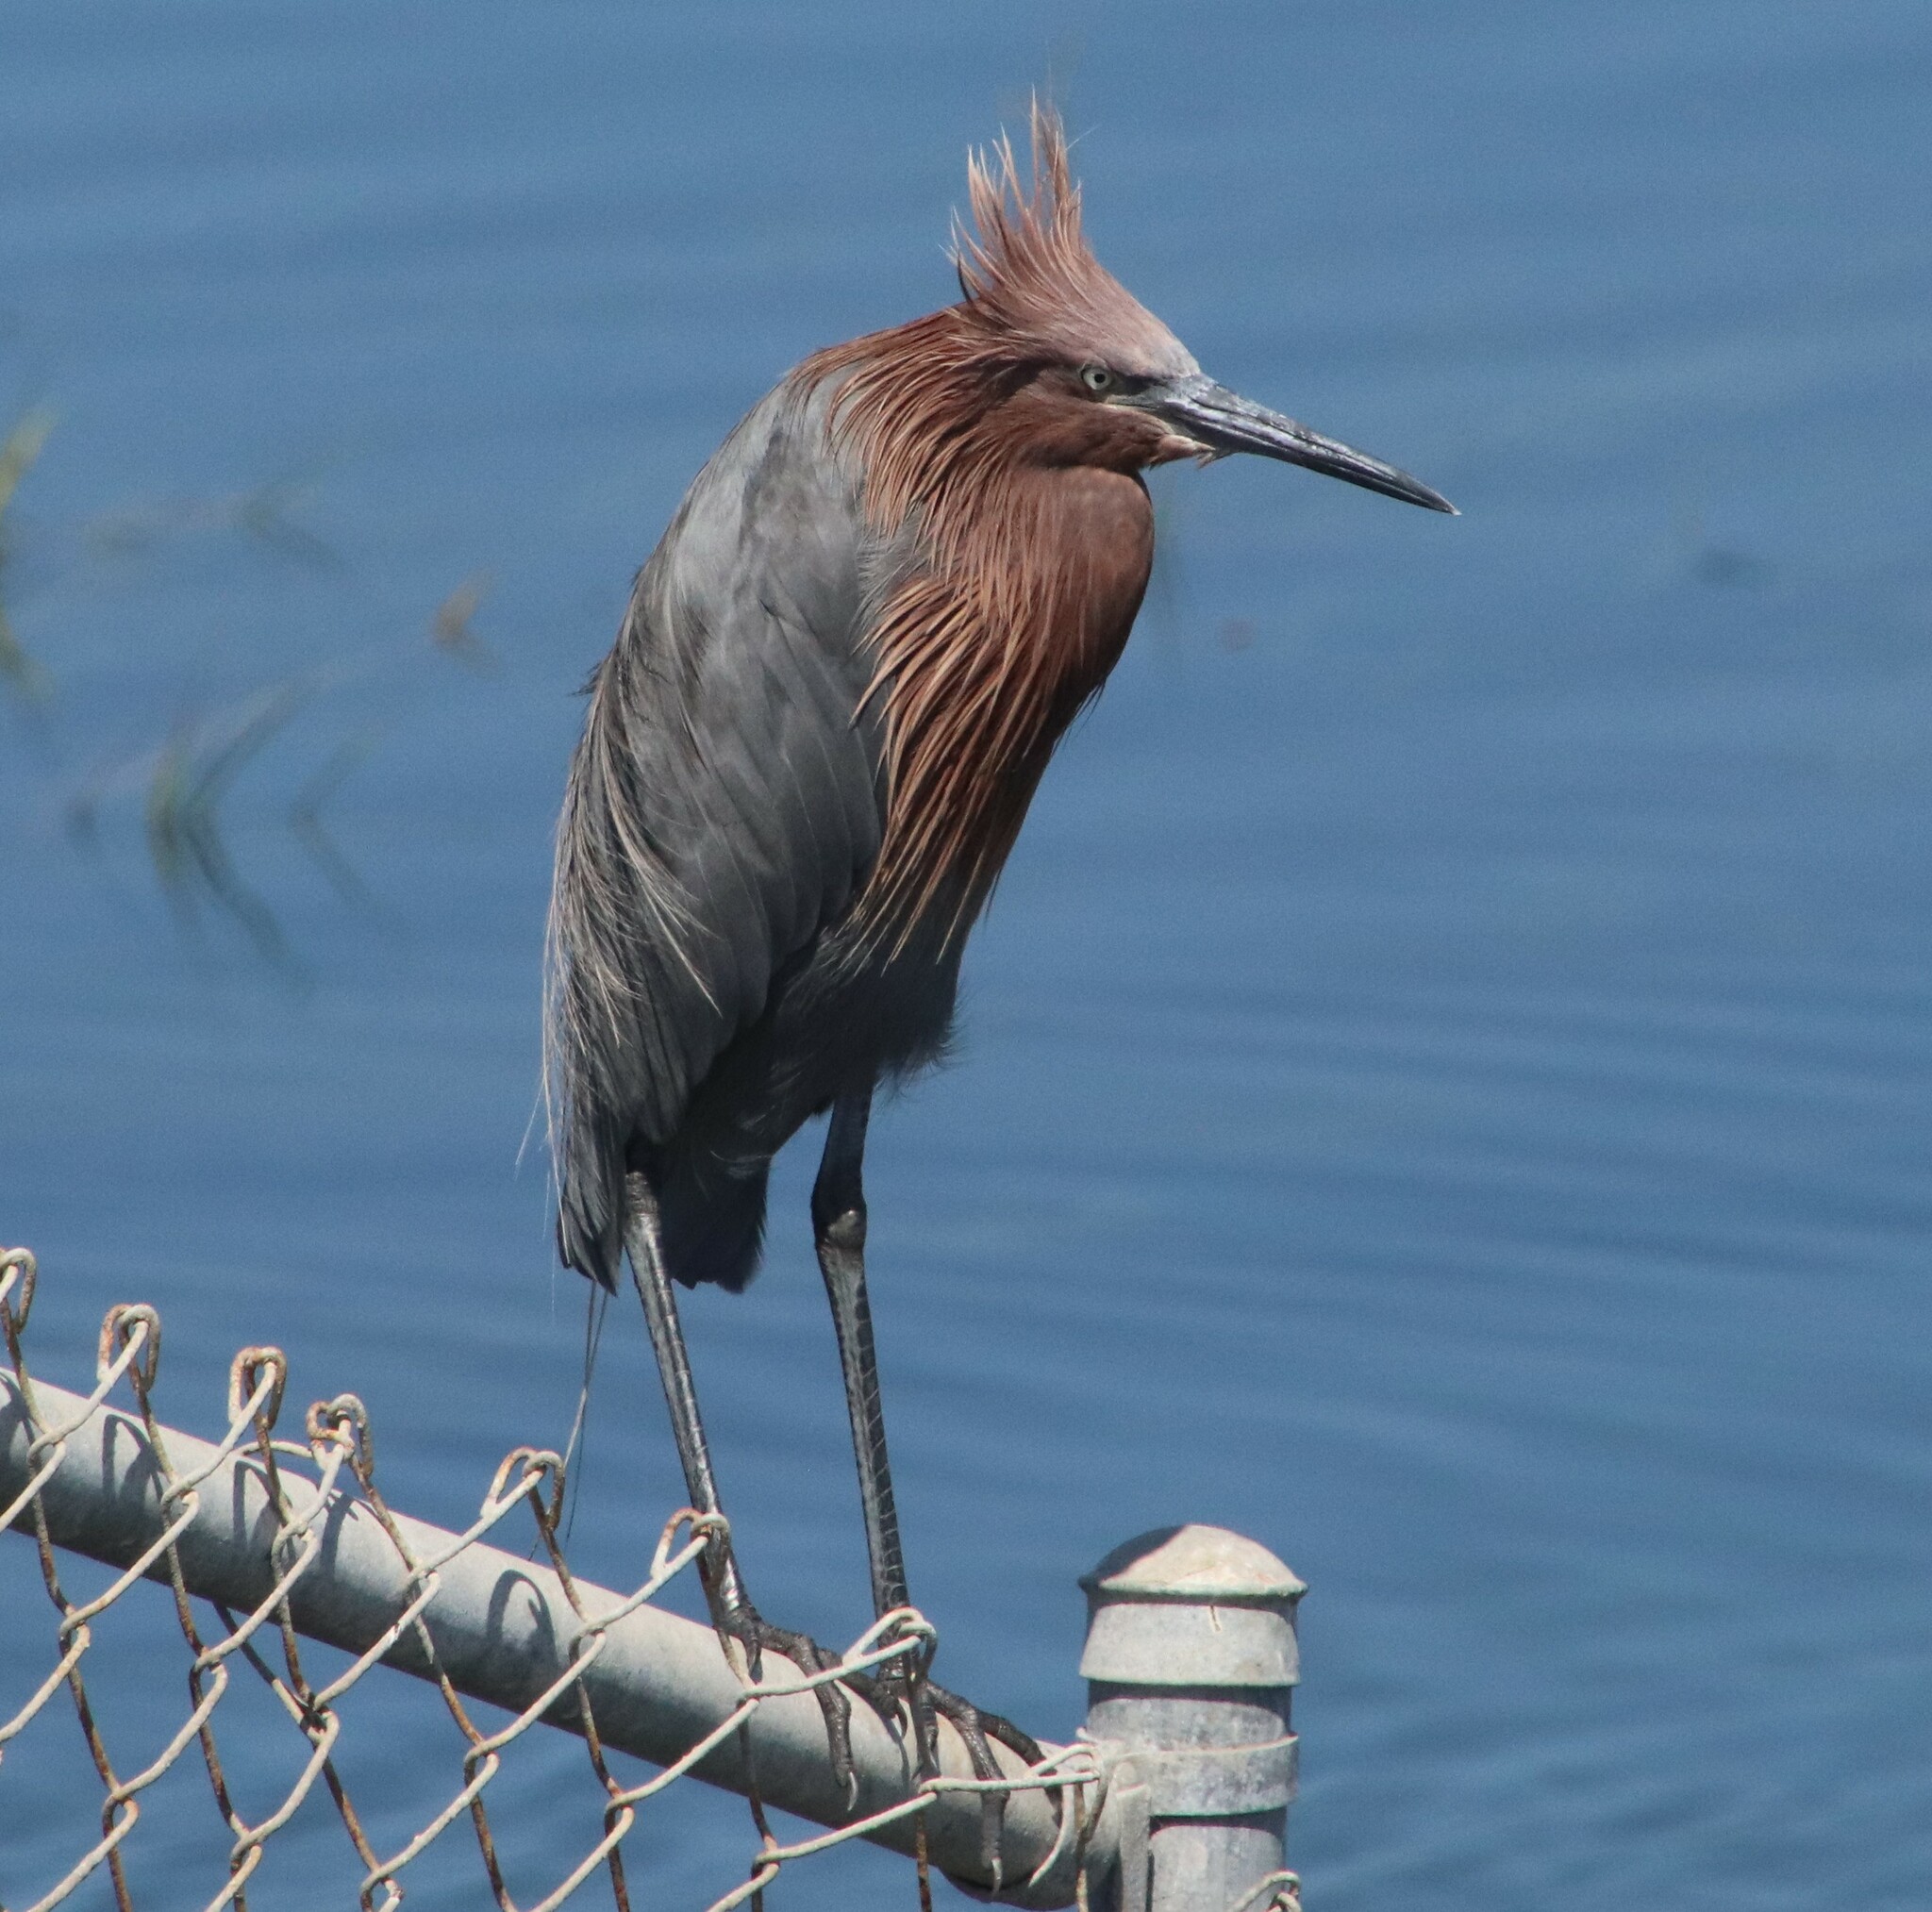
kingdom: Animalia
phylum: Chordata
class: Aves
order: Pelecaniformes
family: Ardeidae
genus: Egretta
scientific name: Egretta rufescens
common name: Reddish egret
